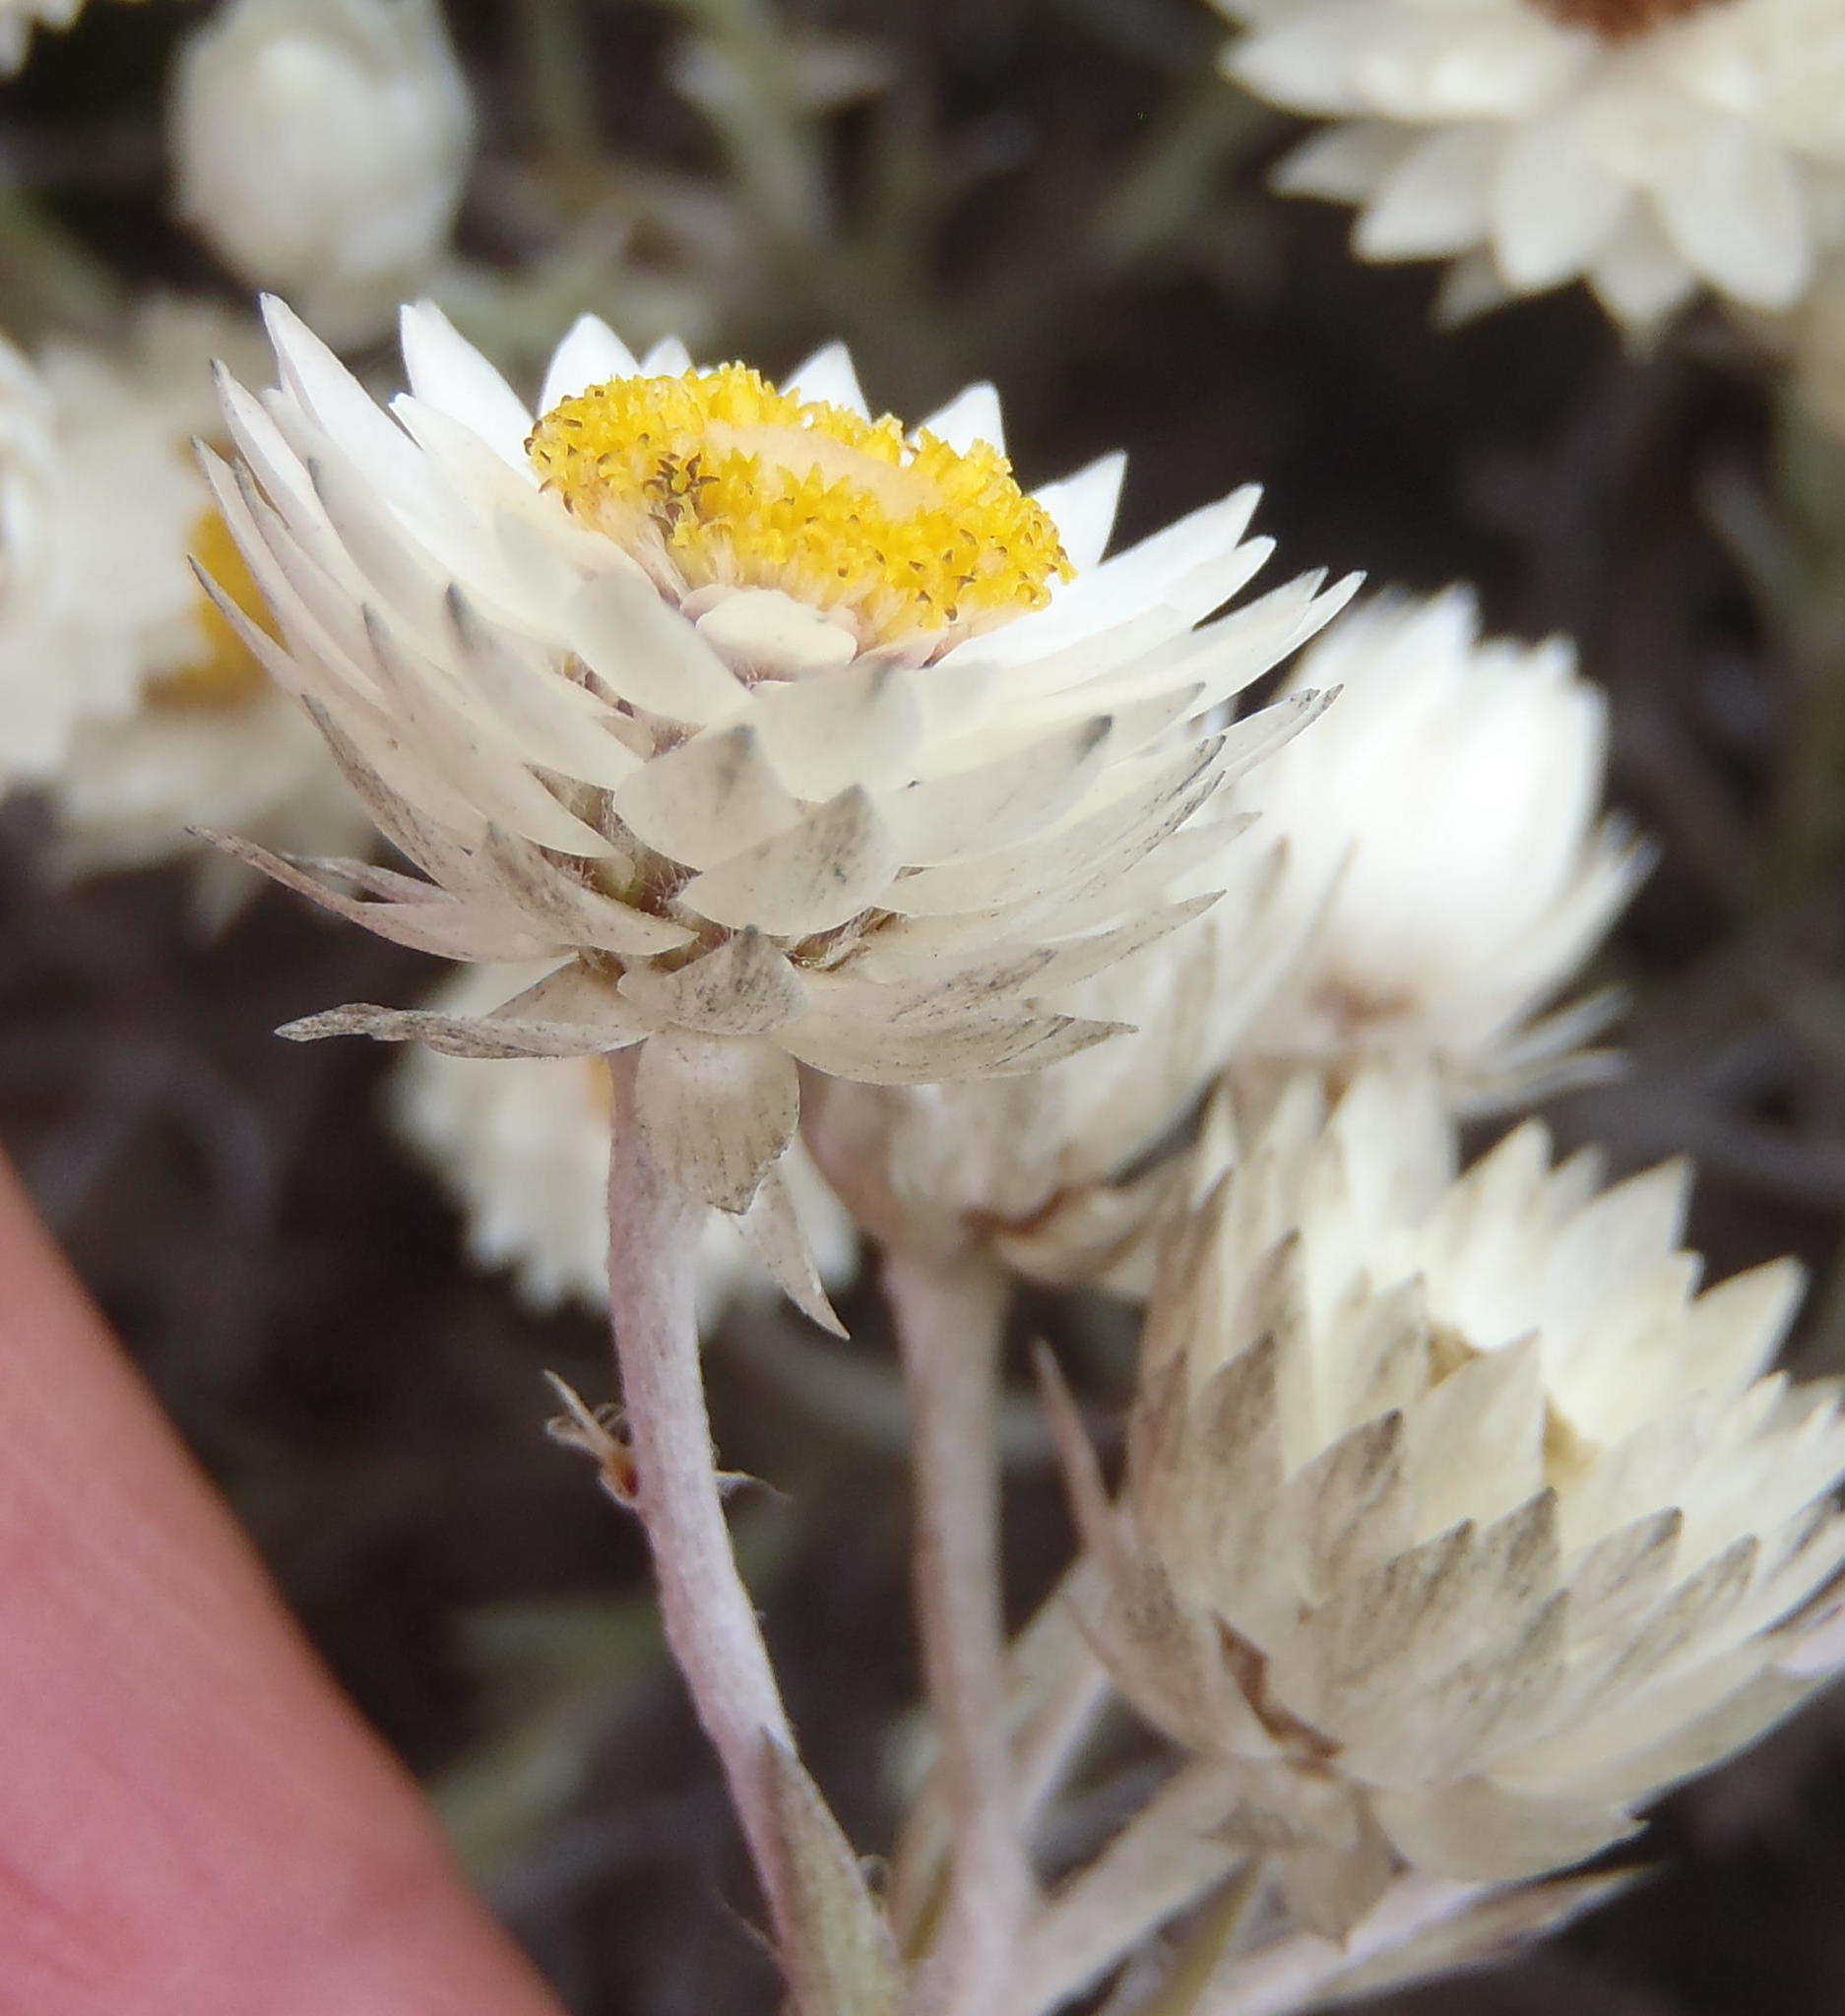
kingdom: Plantae
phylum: Tracheophyta
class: Magnoliopsida
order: Asterales
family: Asteraceae
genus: Achyranthemum
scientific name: Achyranthemum paniculatum
